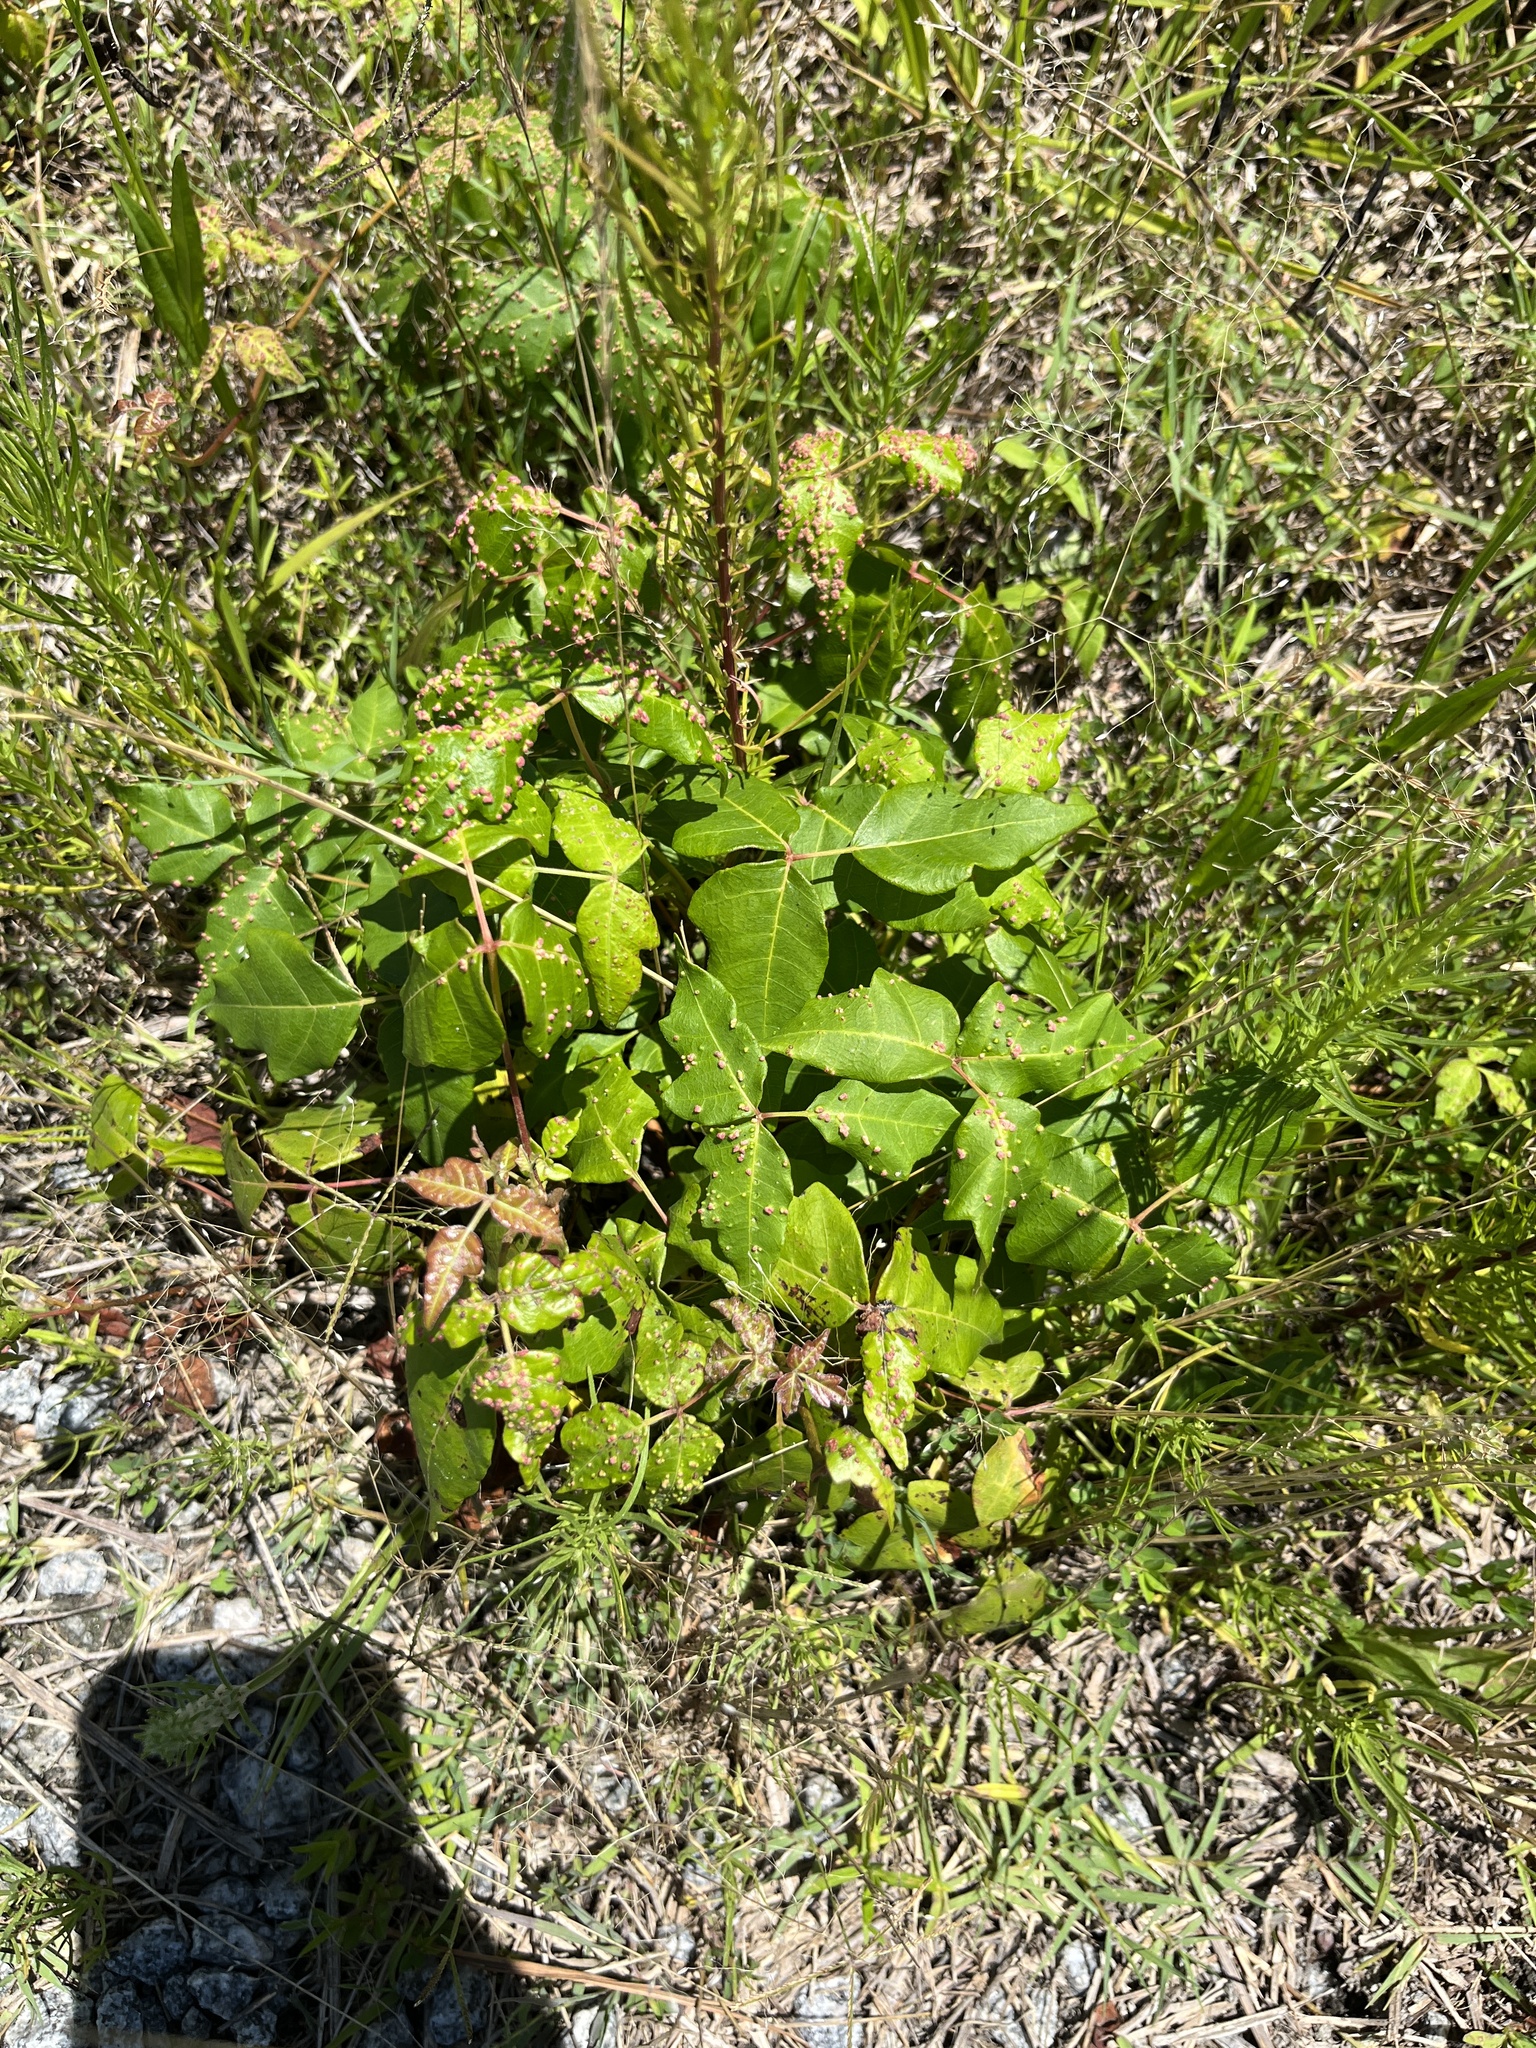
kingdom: Animalia
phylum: Arthropoda
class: Arachnida
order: Trombidiformes
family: Eriophyidae
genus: Aculops
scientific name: Aculops
